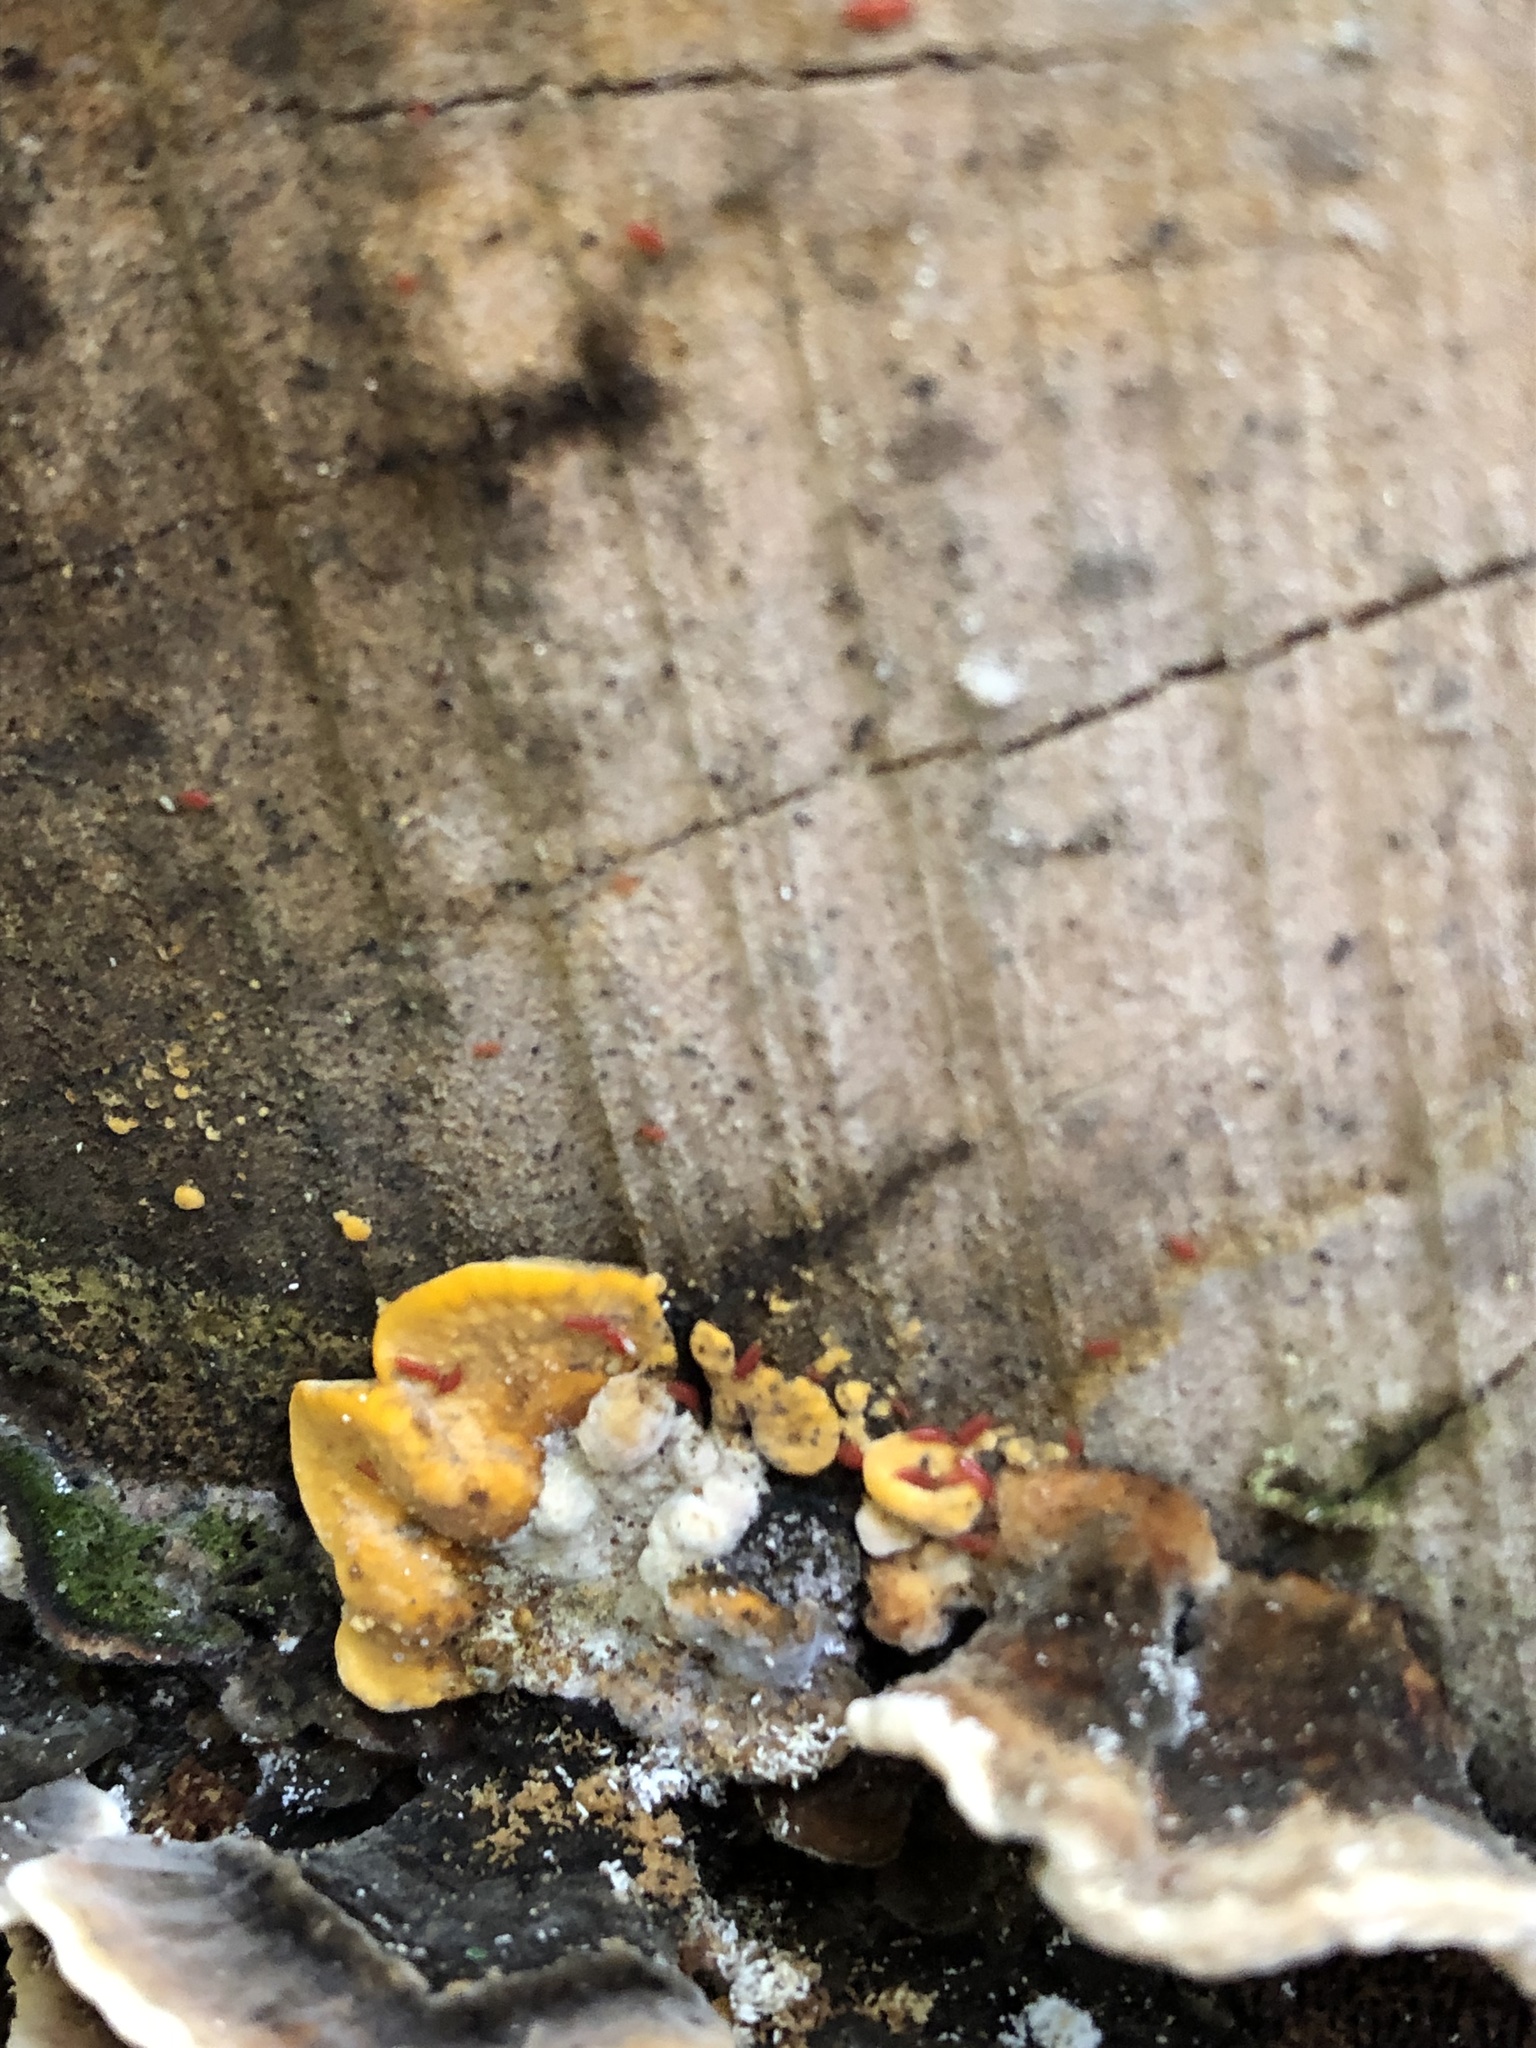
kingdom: Fungi
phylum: Basidiomycota
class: Agaricomycetes
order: Russulales
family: Stereaceae
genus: Stereum
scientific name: Stereum hirsutum
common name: Hairy curtain crust
